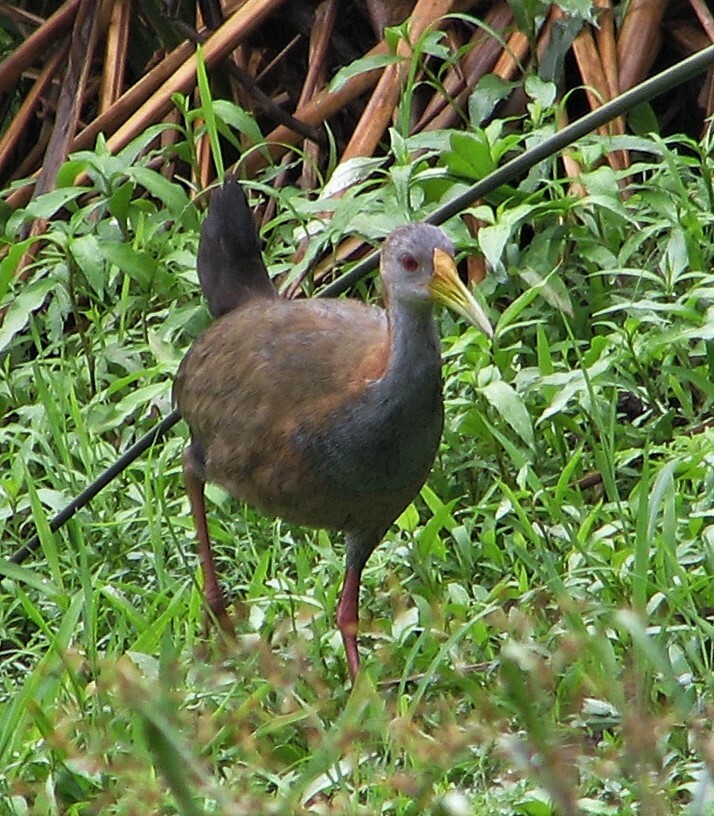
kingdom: Animalia
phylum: Chordata
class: Aves
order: Gruiformes
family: Rallidae
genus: Aramides
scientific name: Aramides ypecaha
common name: Giant wood rail
